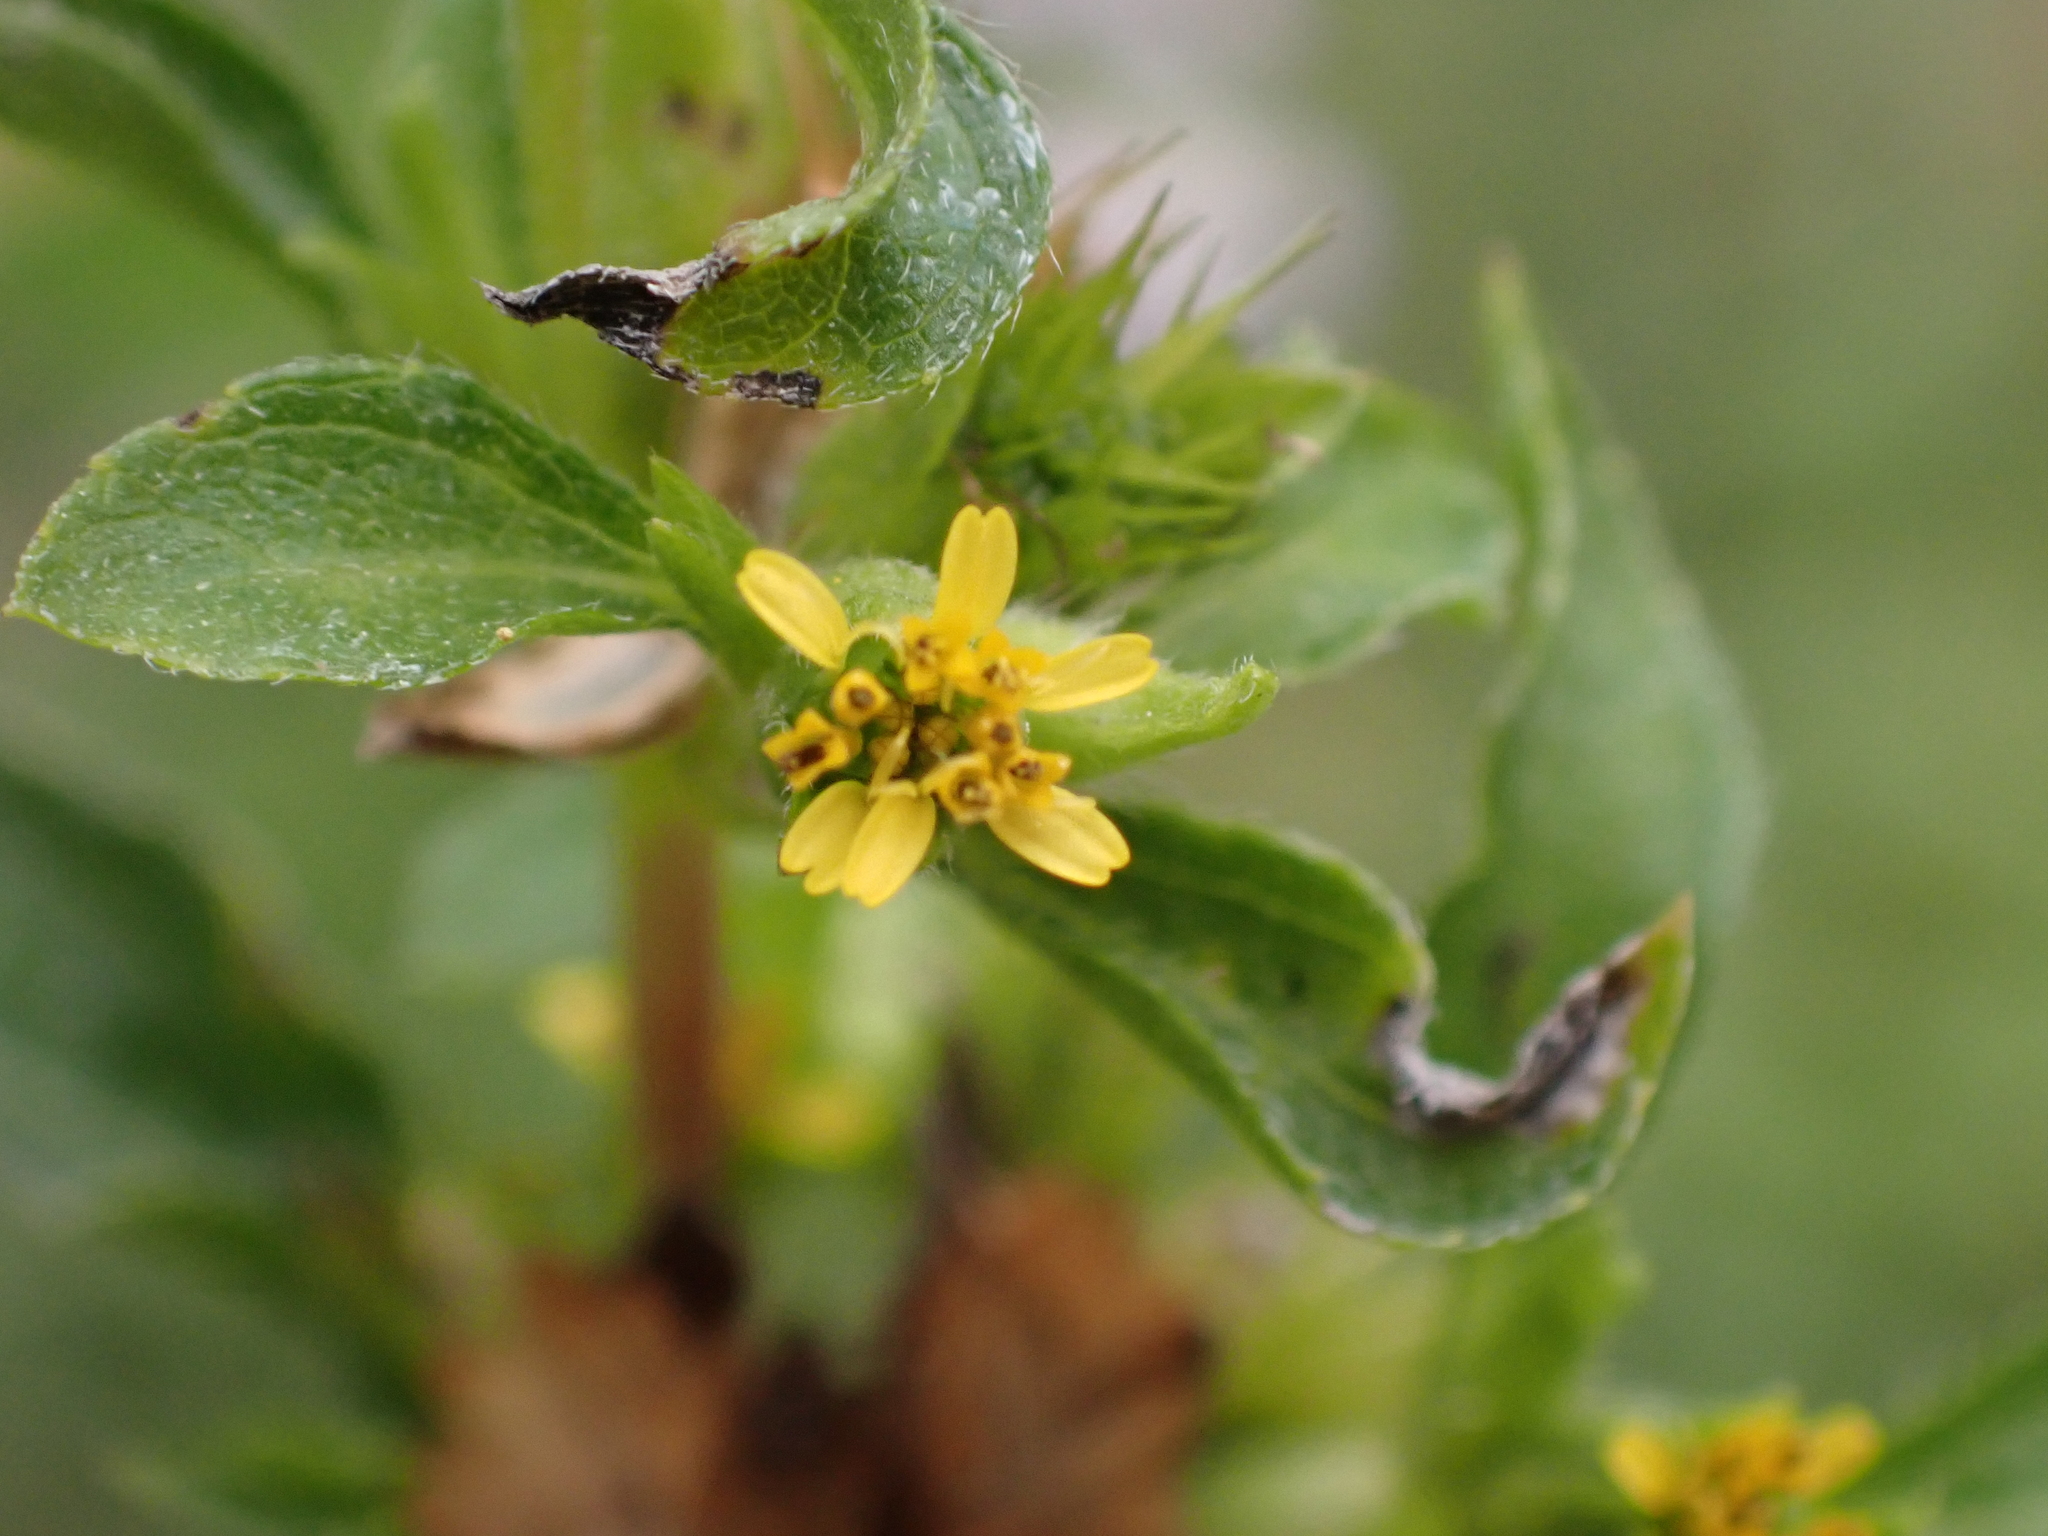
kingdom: Plantae
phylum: Tracheophyta
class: Magnoliopsida
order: Asterales
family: Asteraceae
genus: Synedrella
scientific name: Synedrella nodiflora
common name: Nodeweed
